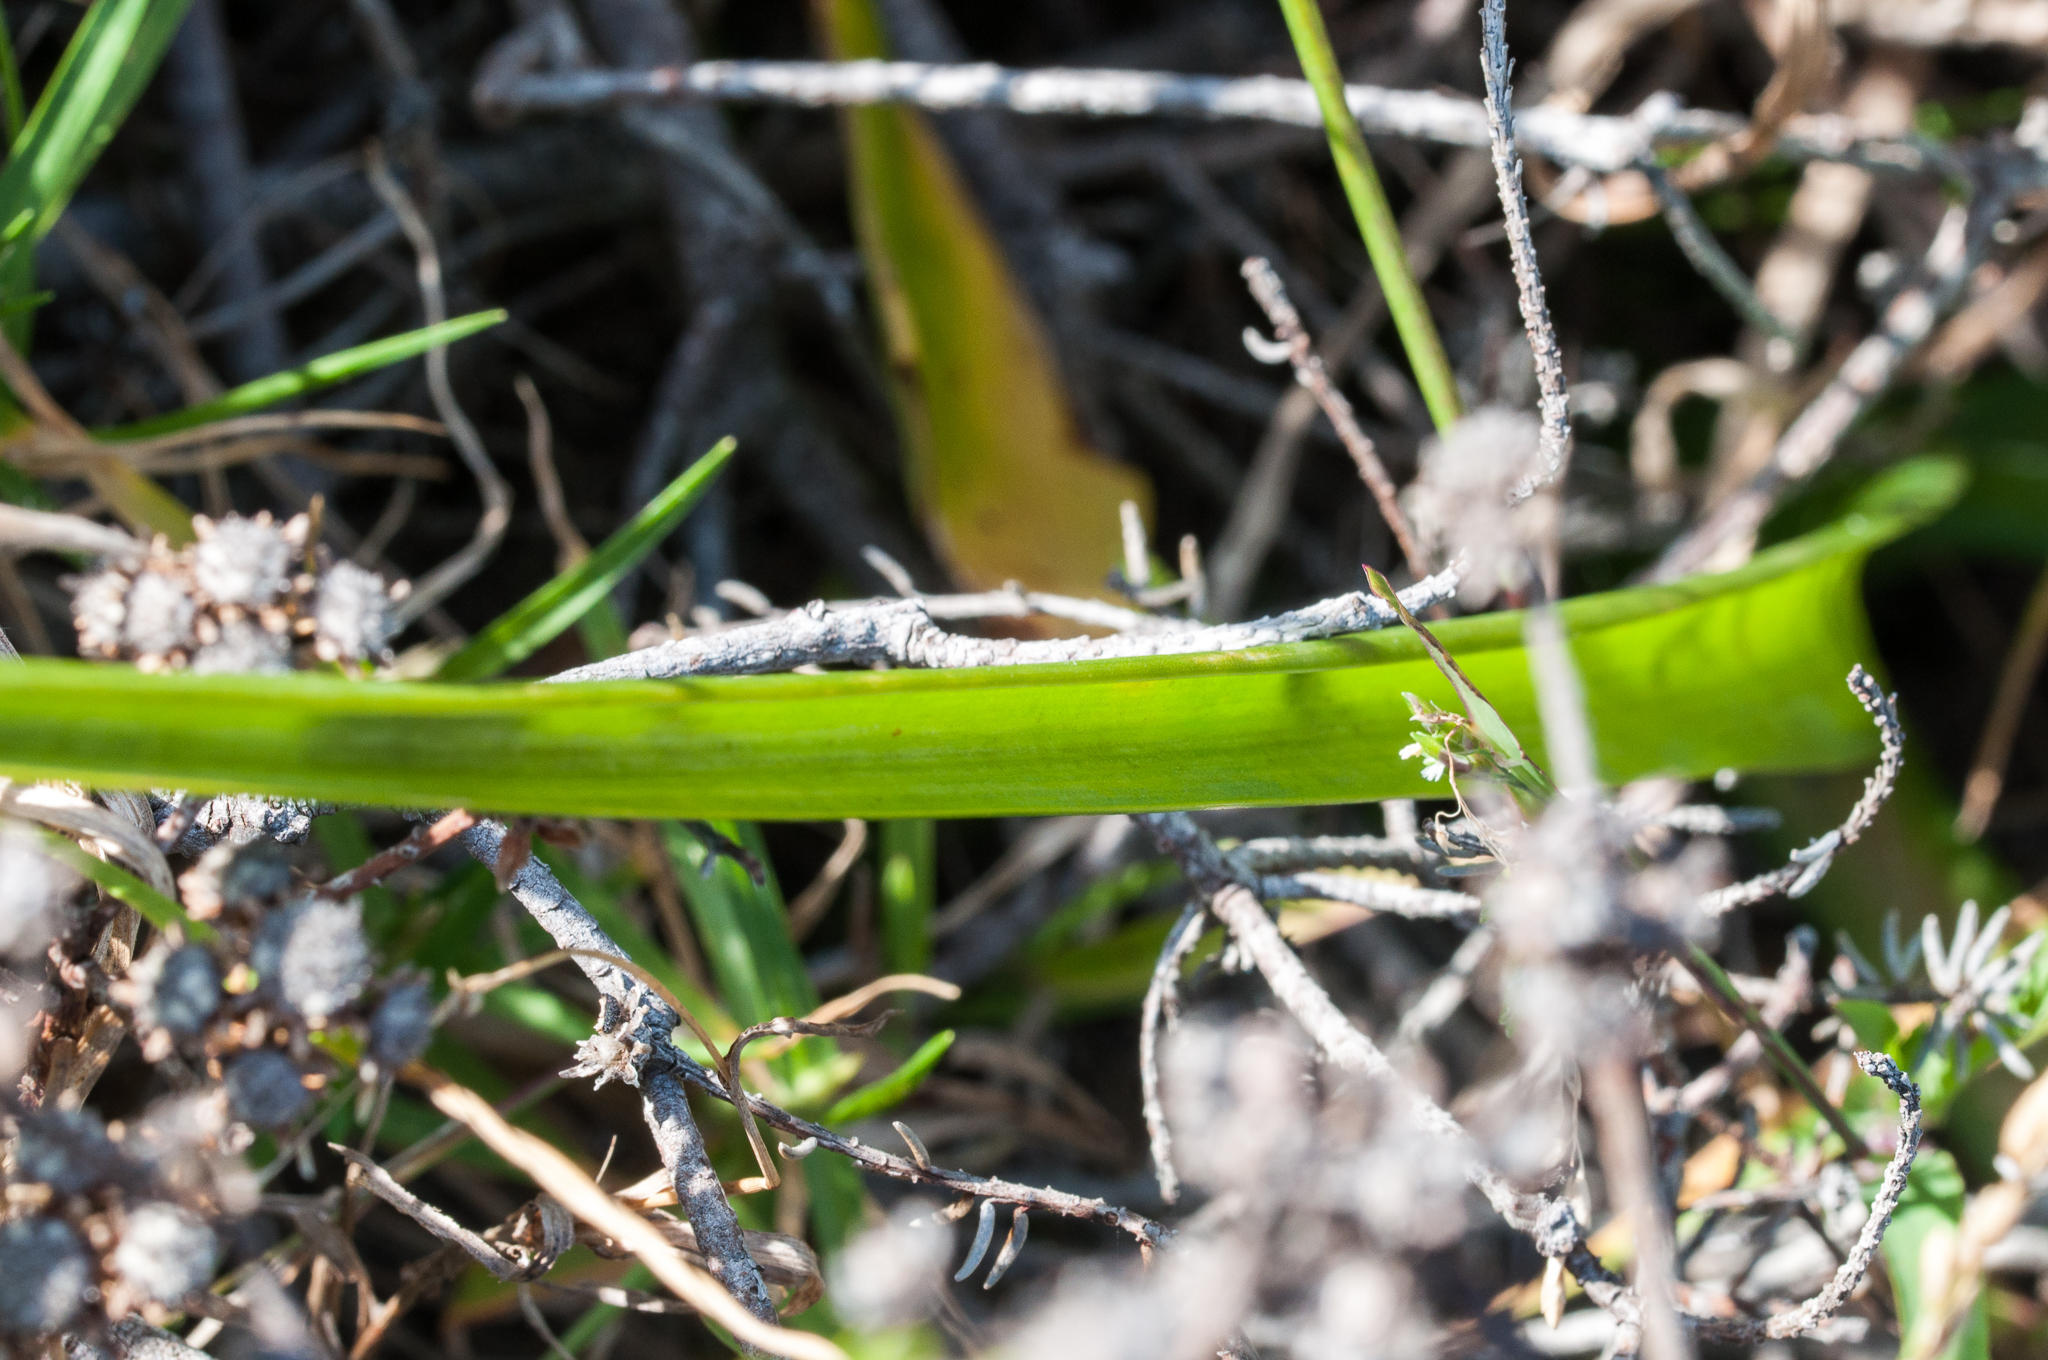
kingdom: Plantae
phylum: Tracheophyta
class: Liliopsida
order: Asparagales
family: Asparagaceae
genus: Albuca
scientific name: Albuca fragrans
